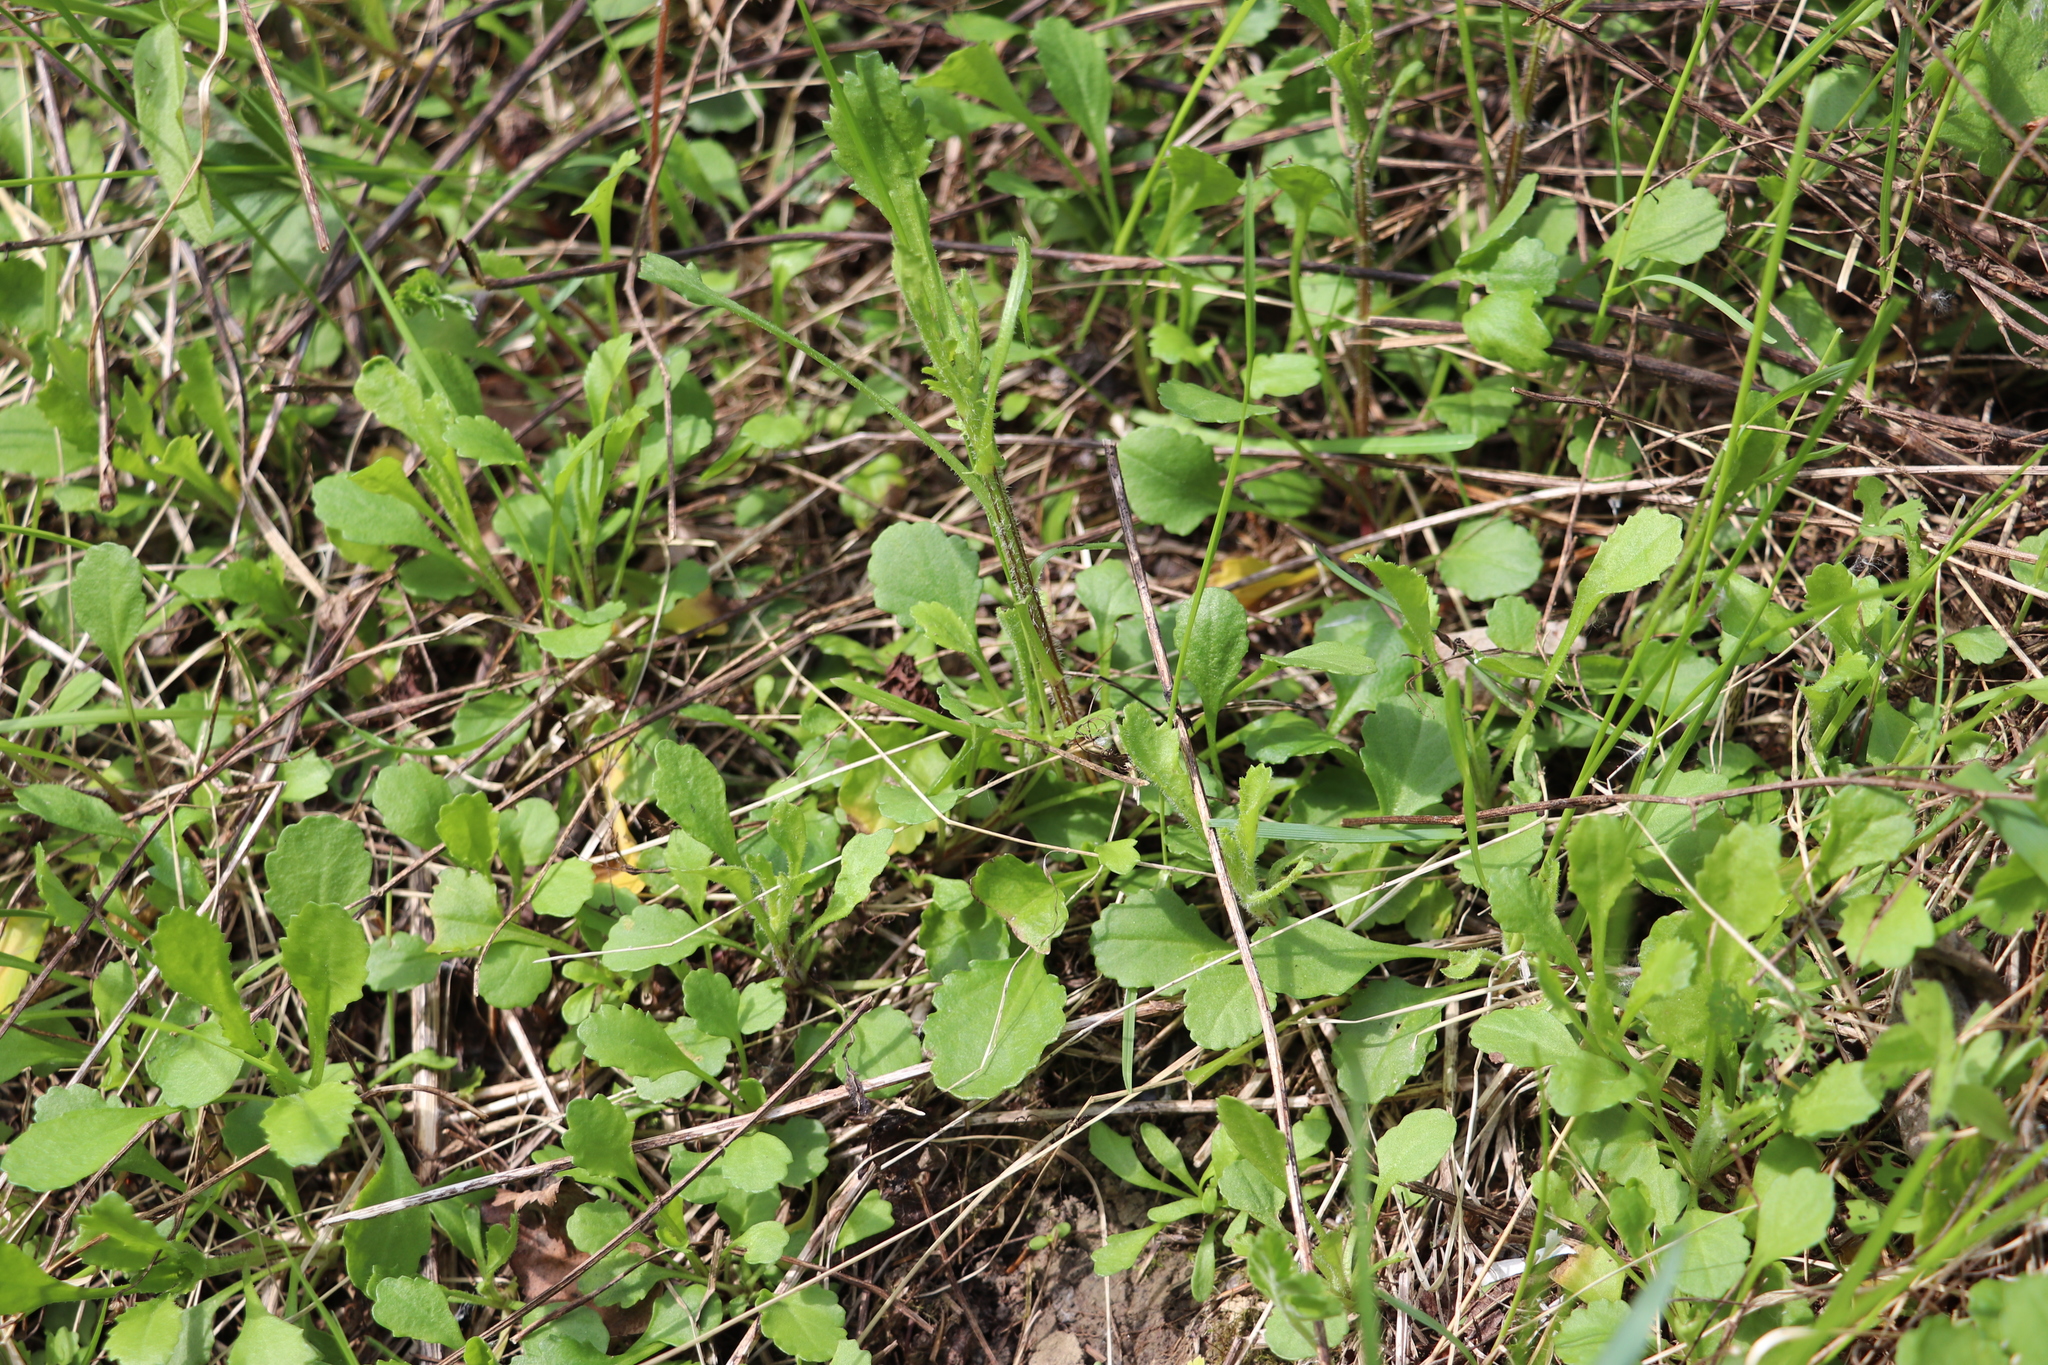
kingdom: Plantae
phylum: Tracheophyta
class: Magnoliopsida
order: Asterales
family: Asteraceae
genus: Leucanthemum
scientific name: Leucanthemum vulgare
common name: Oxeye daisy
